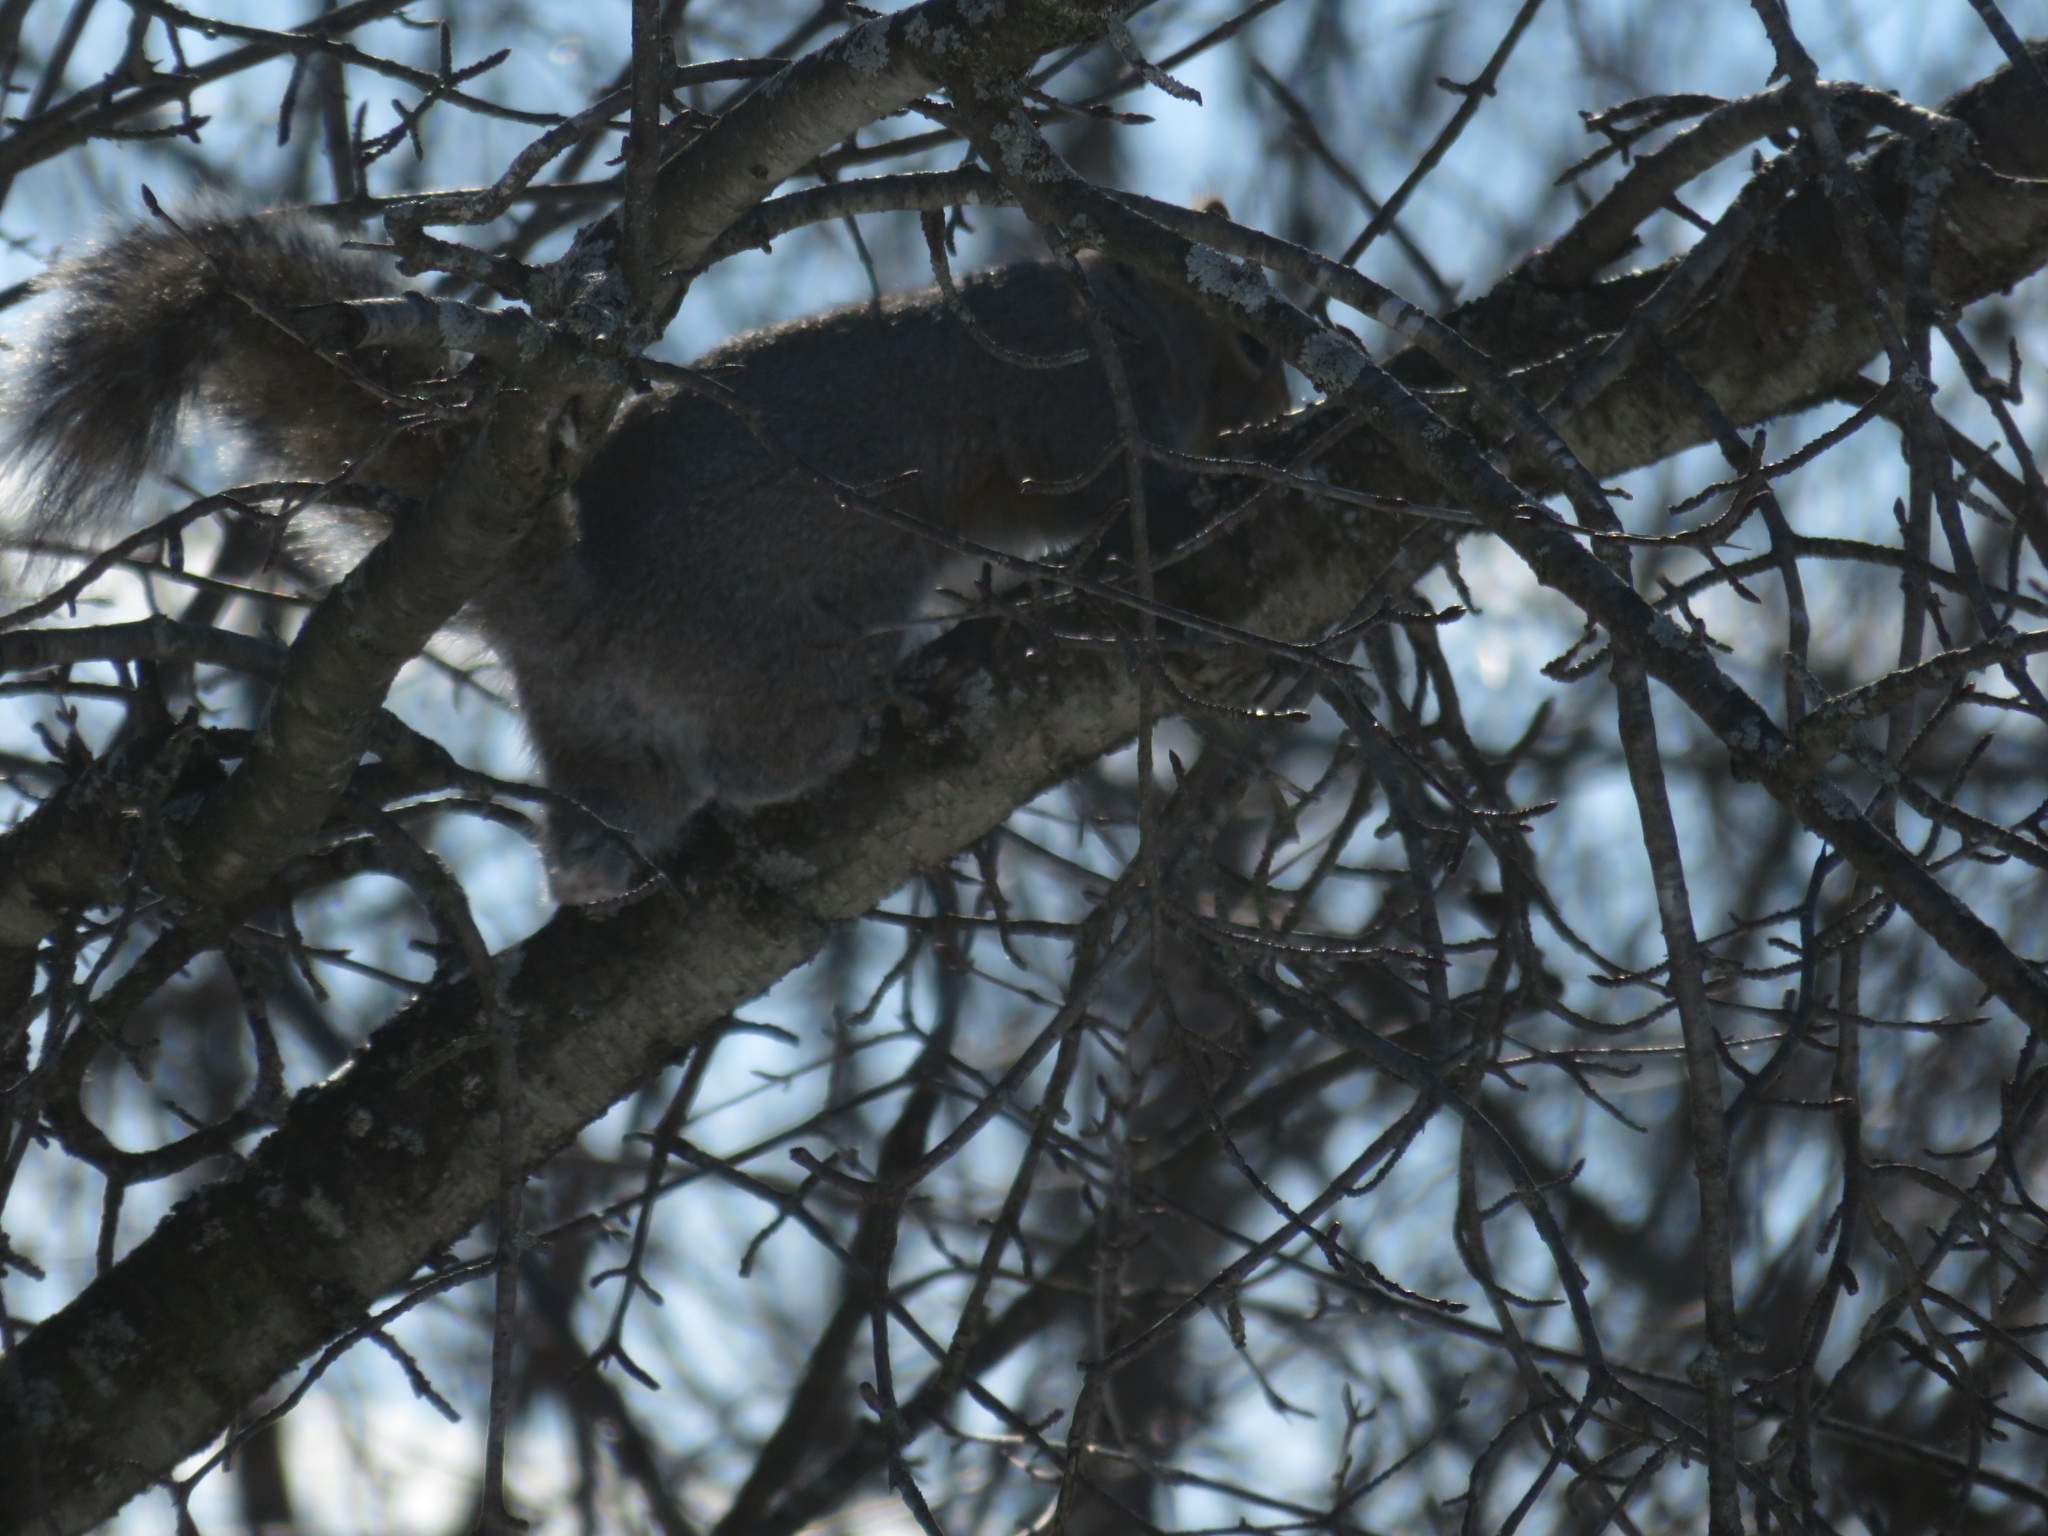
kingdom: Animalia
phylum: Chordata
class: Mammalia
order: Rodentia
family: Sciuridae
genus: Sciurus
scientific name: Sciurus carolinensis
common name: Eastern gray squirrel
